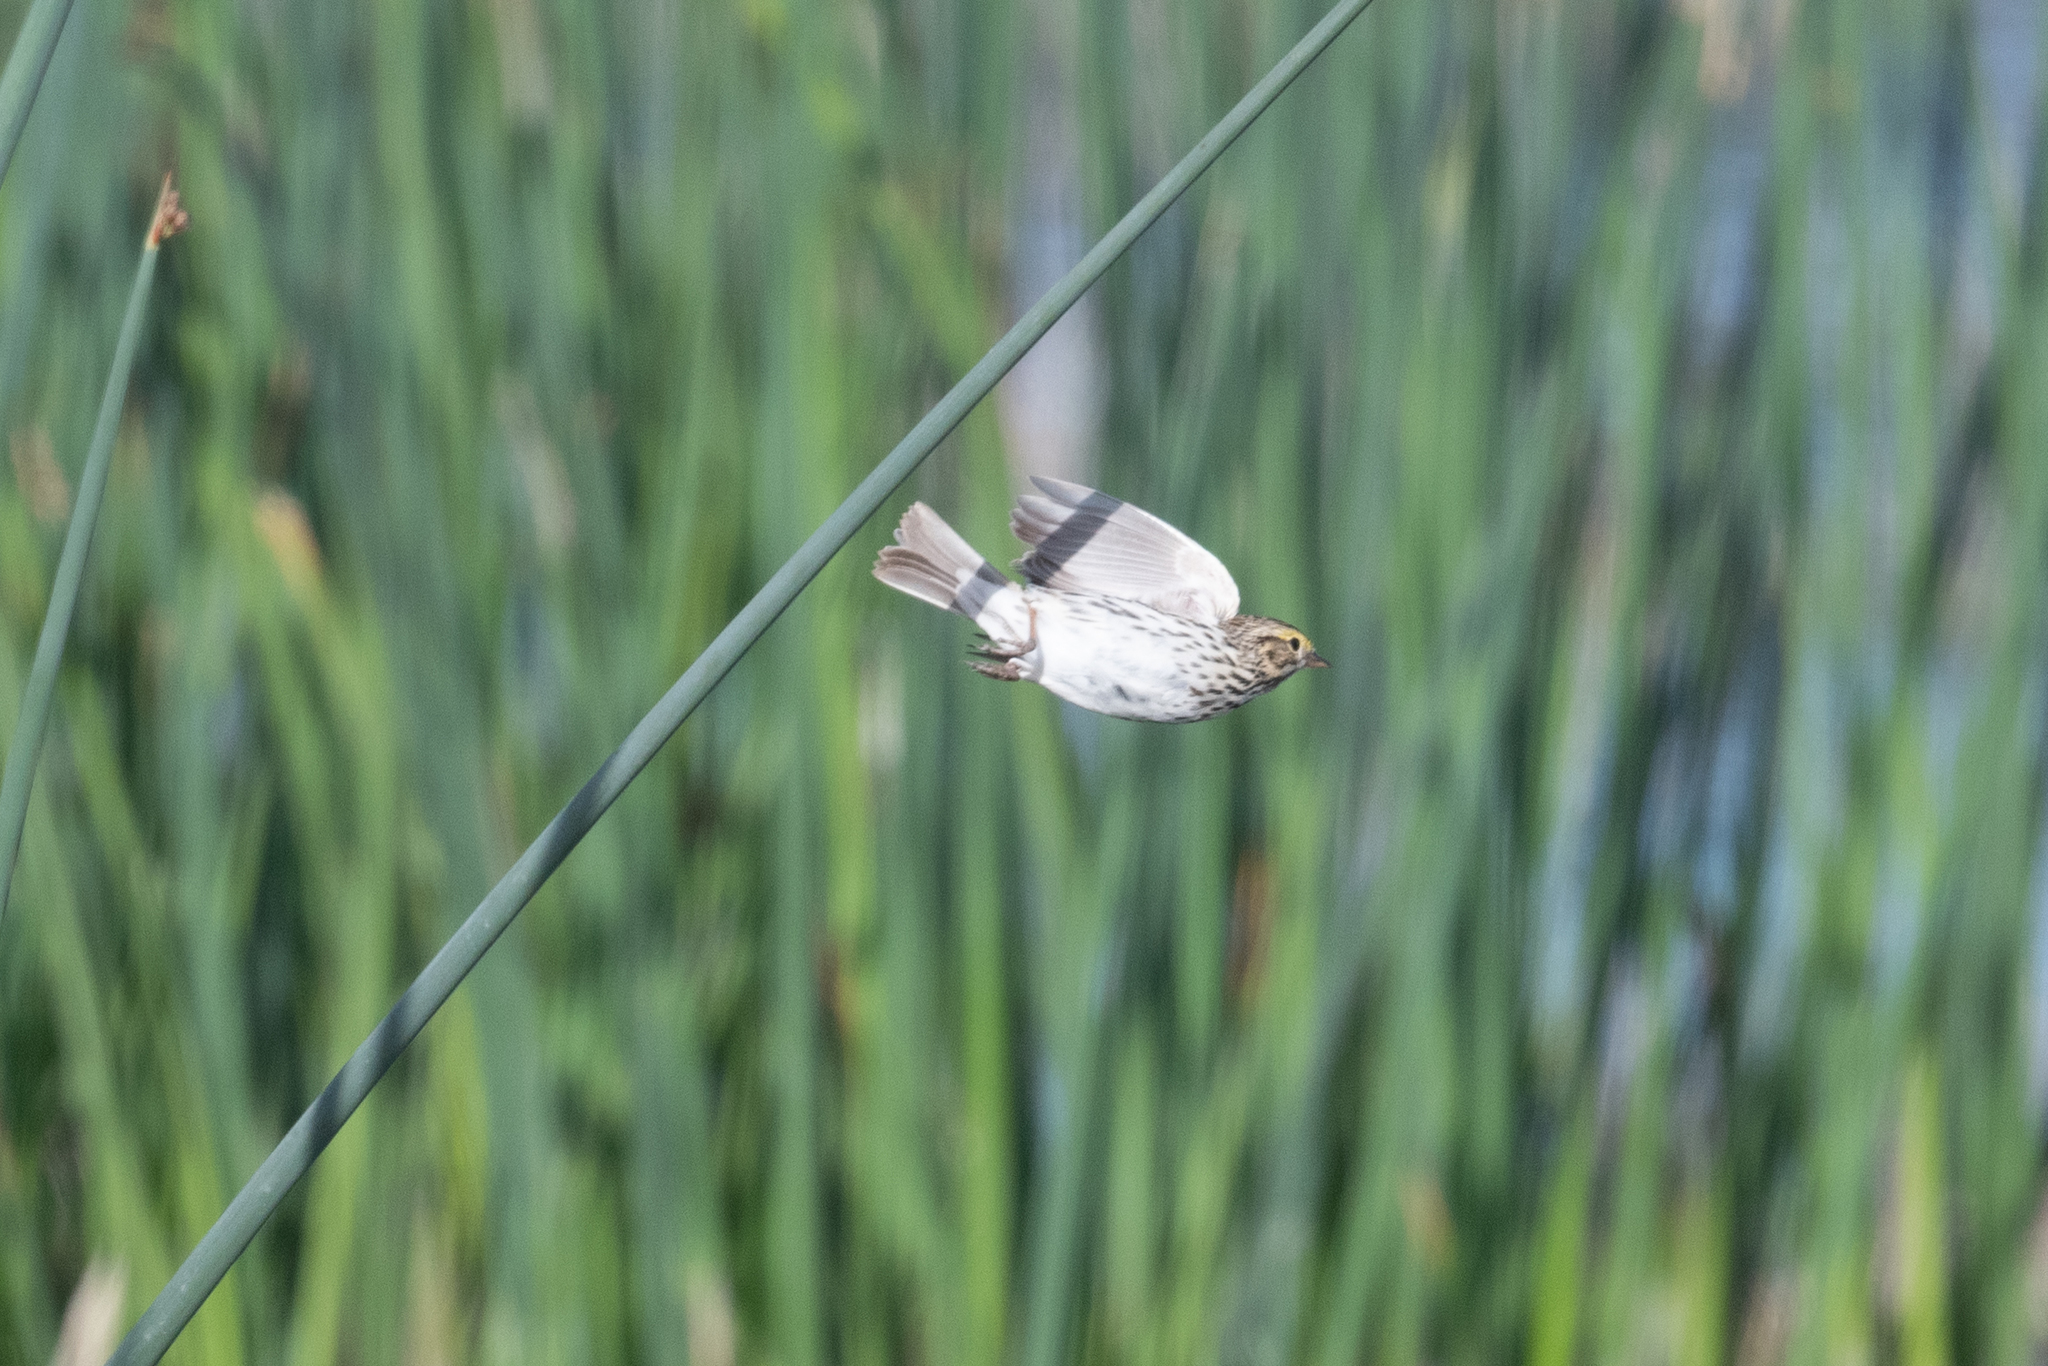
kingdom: Animalia
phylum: Chordata
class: Aves
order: Passeriformes
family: Passerellidae
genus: Passerculus
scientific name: Passerculus sandwichensis
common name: Savannah sparrow
